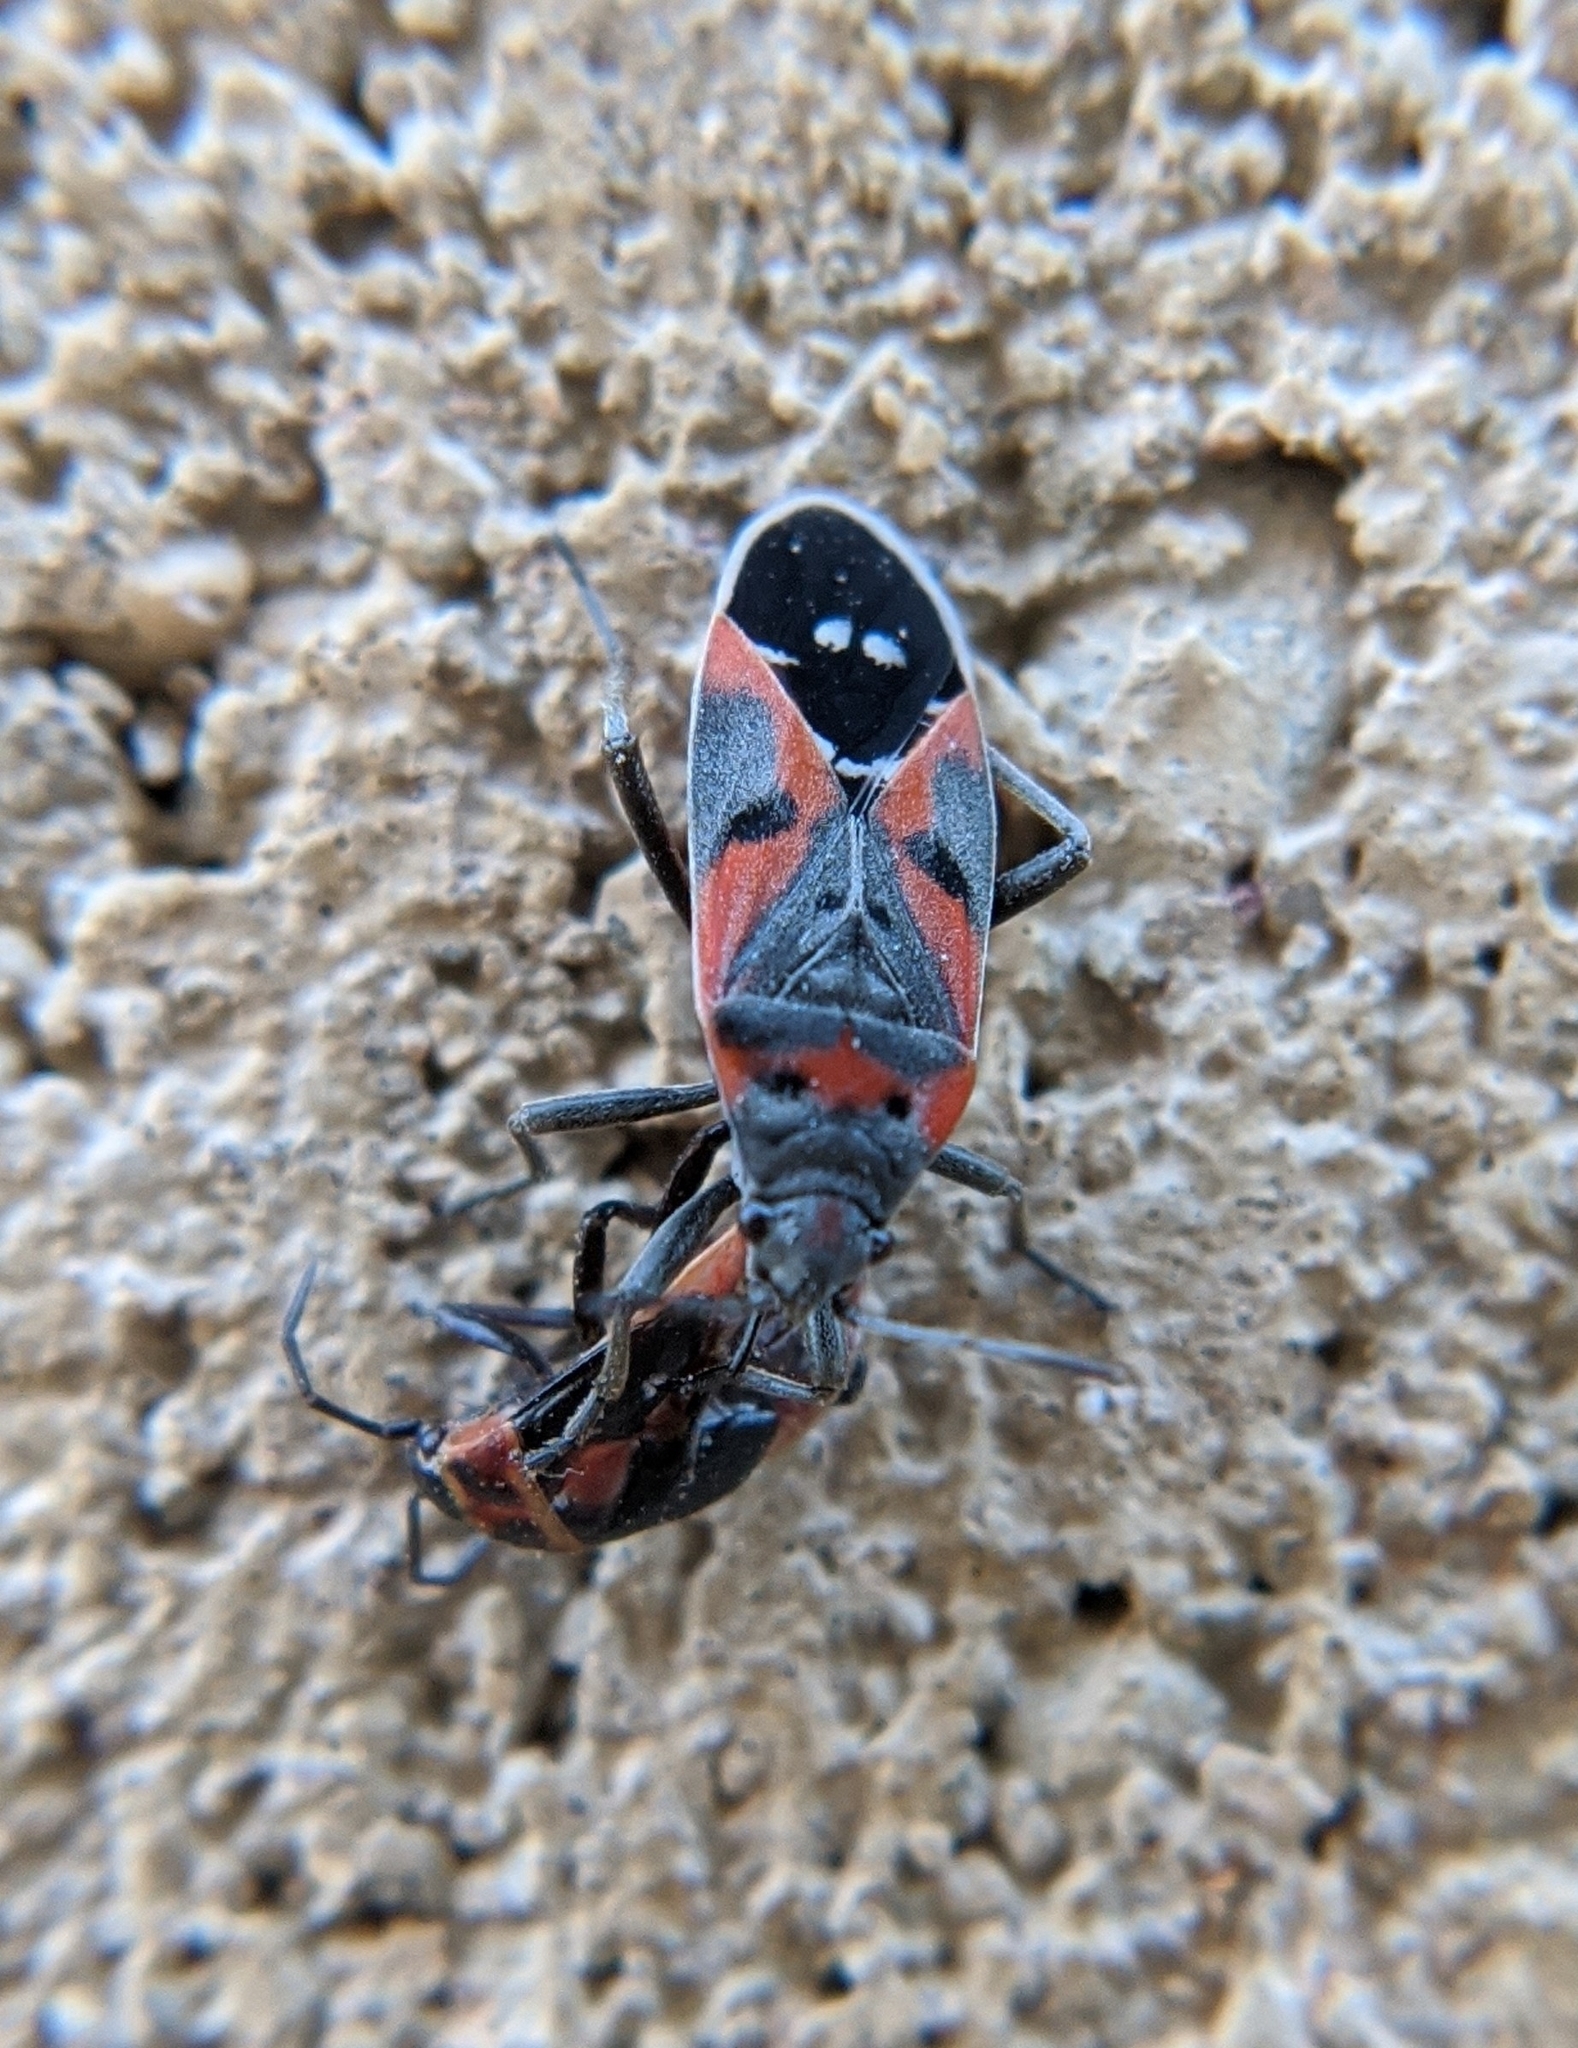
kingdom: Animalia
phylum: Arthropoda
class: Insecta
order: Hemiptera
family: Lygaeidae
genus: Lygaeus
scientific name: Lygaeus kalmii
